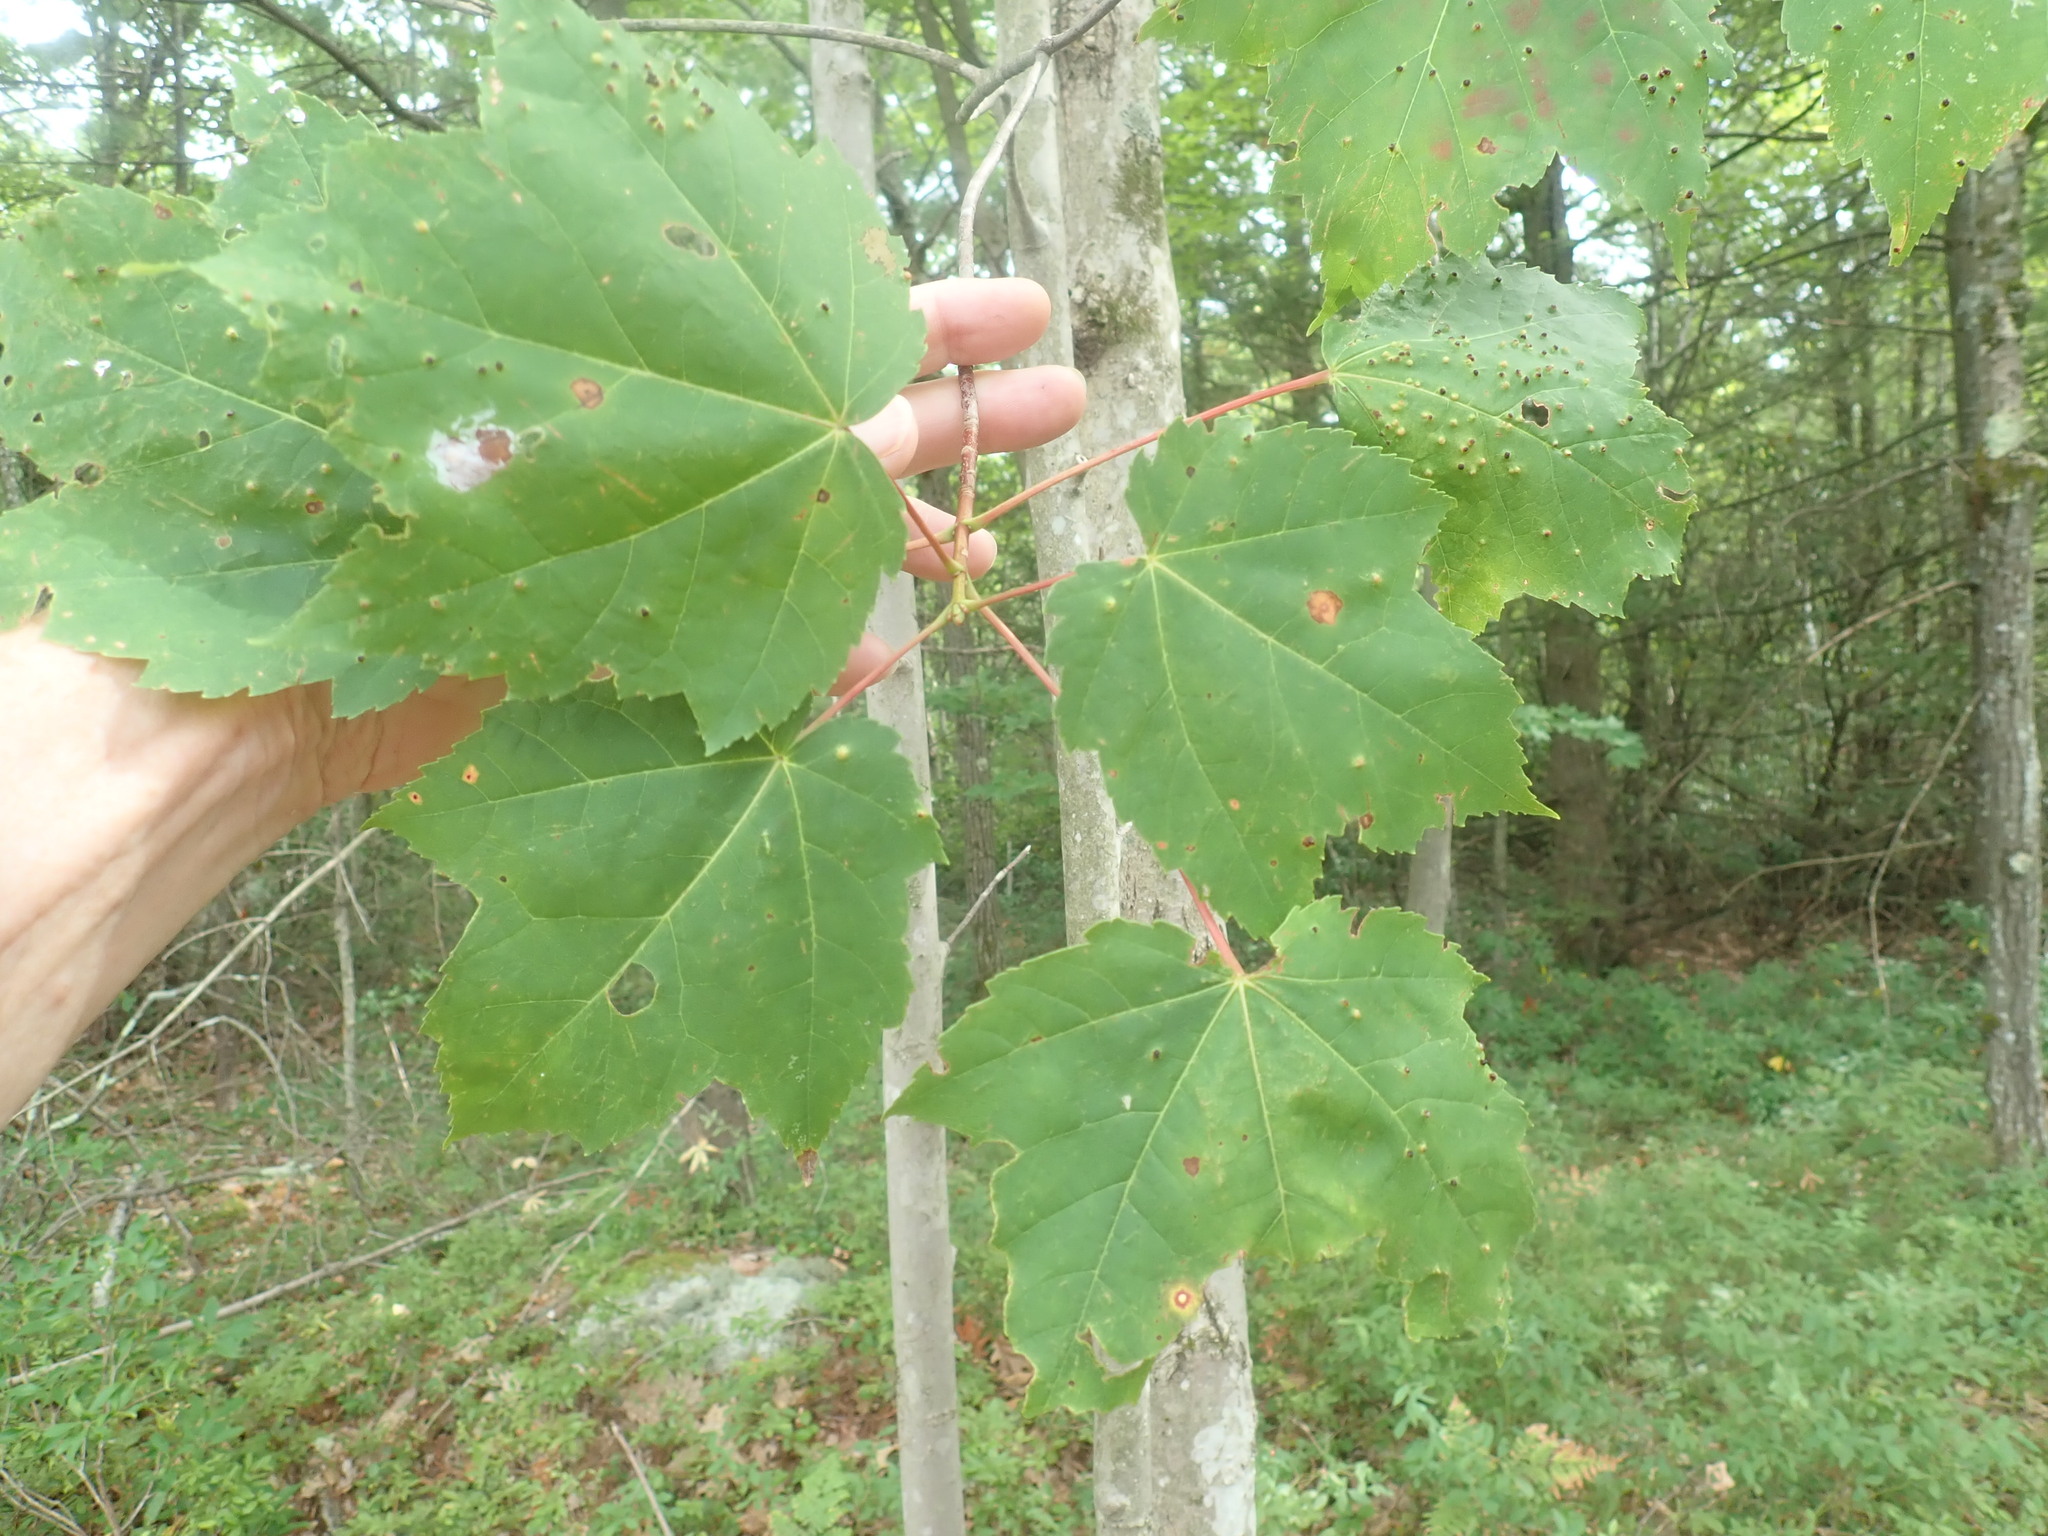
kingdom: Plantae
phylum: Tracheophyta
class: Magnoliopsida
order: Sapindales
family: Sapindaceae
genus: Acer
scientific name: Acer rubrum
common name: Red maple
